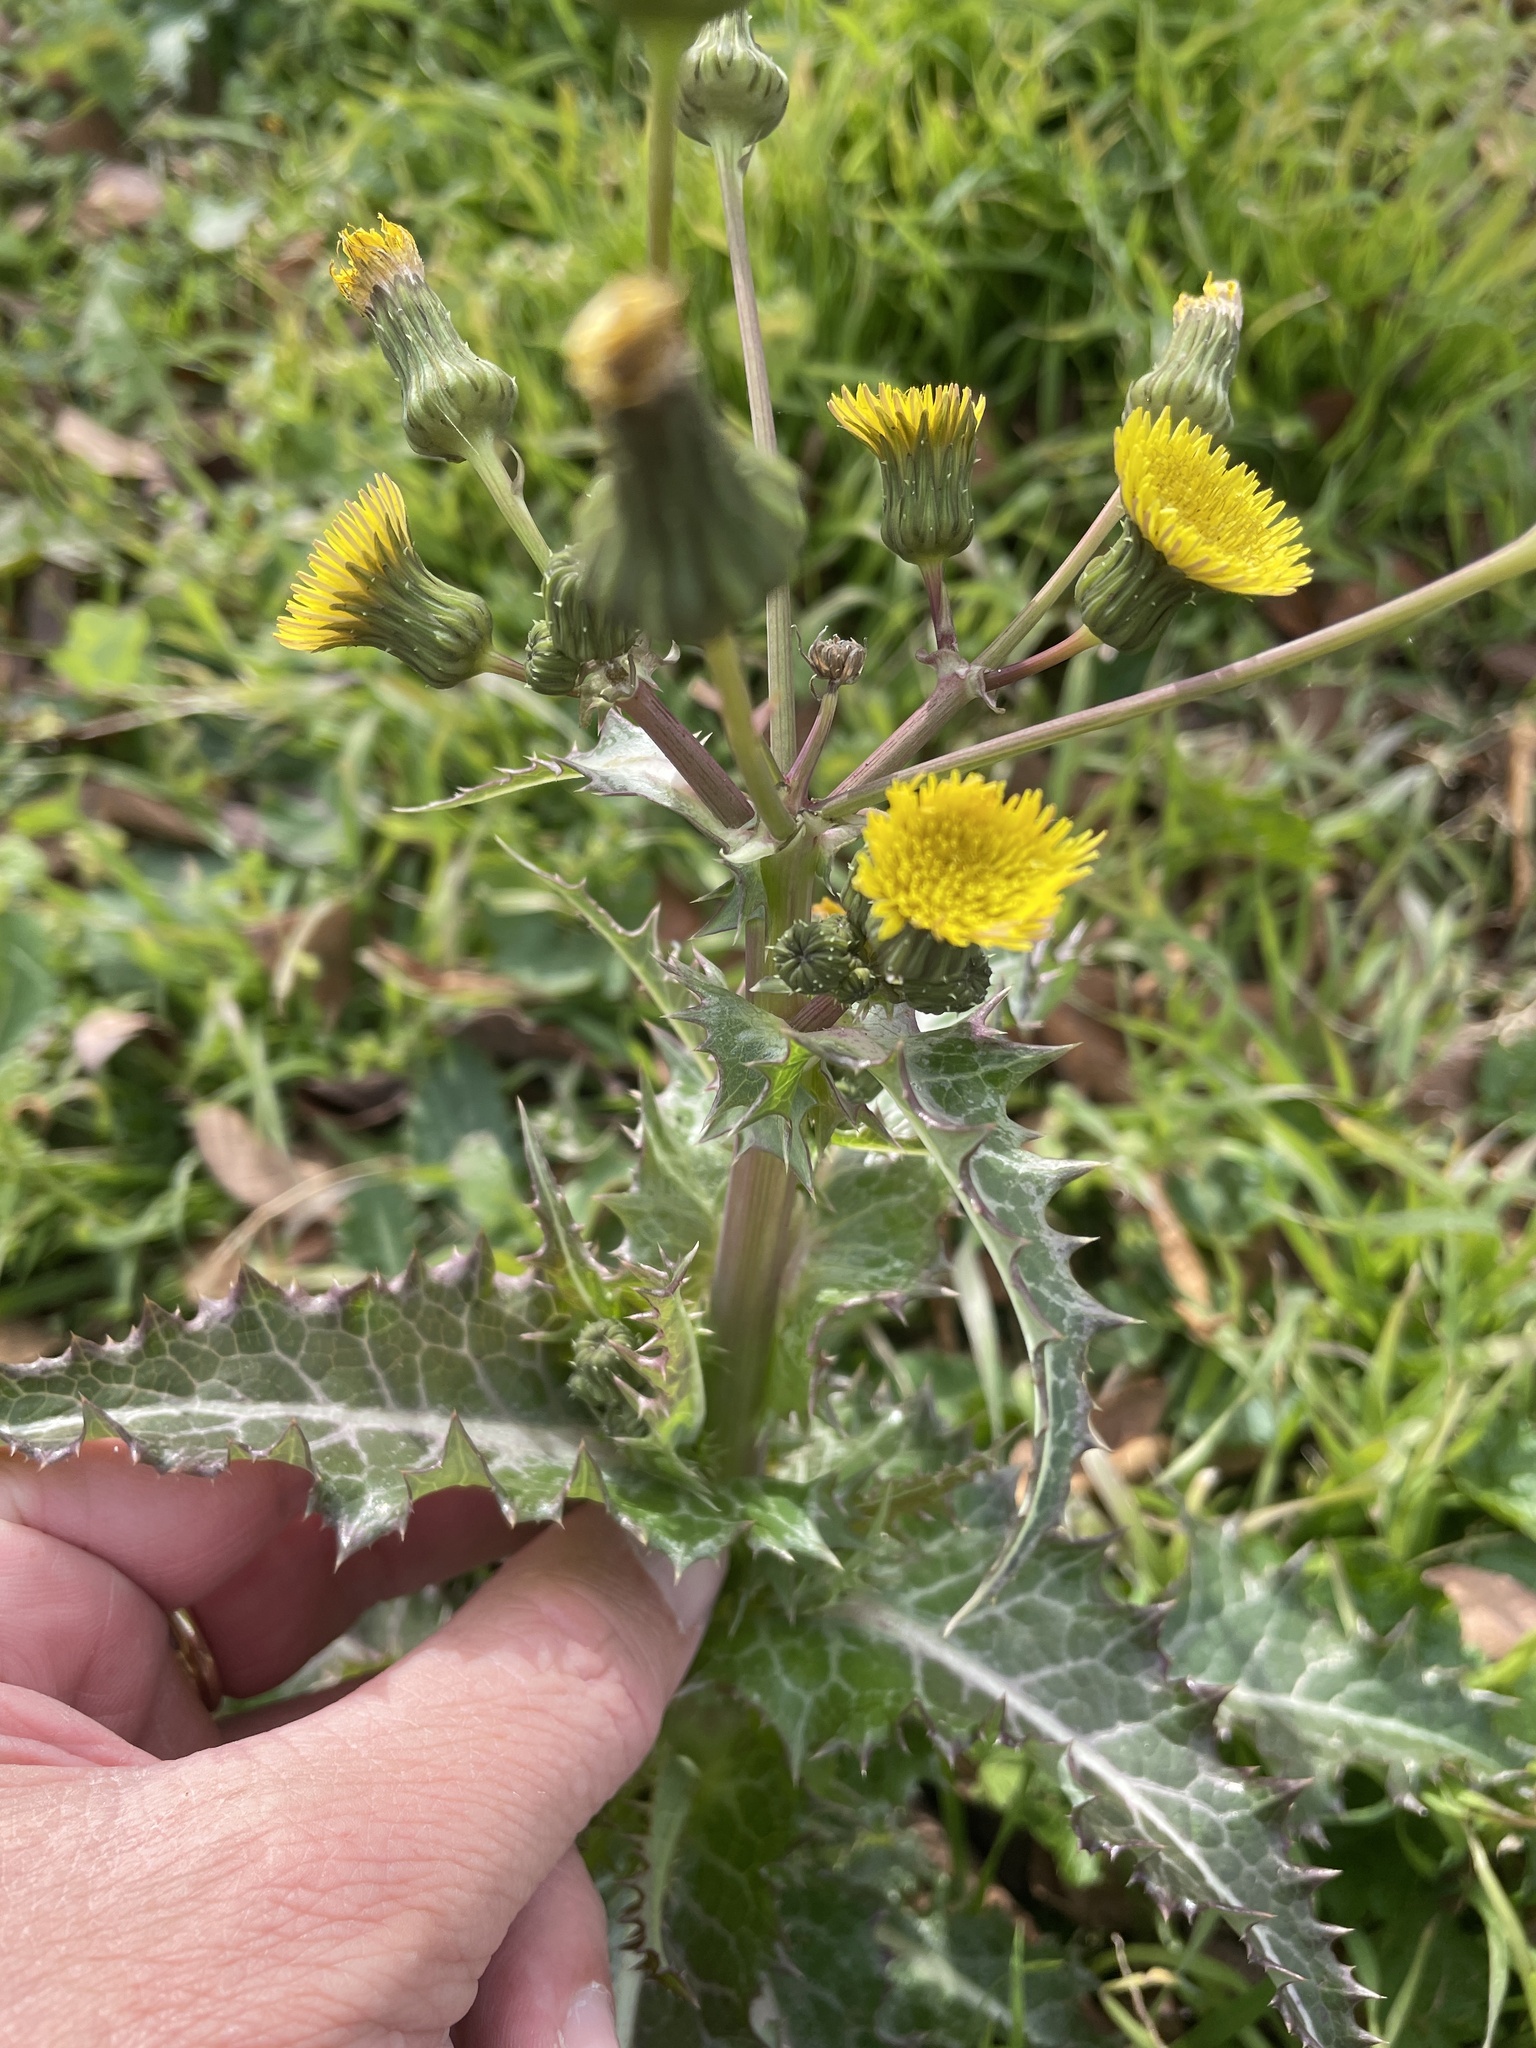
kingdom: Plantae
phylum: Tracheophyta
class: Magnoliopsida
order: Asterales
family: Asteraceae
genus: Sonchus
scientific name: Sonchus asper
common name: Prickly sow-thistle
